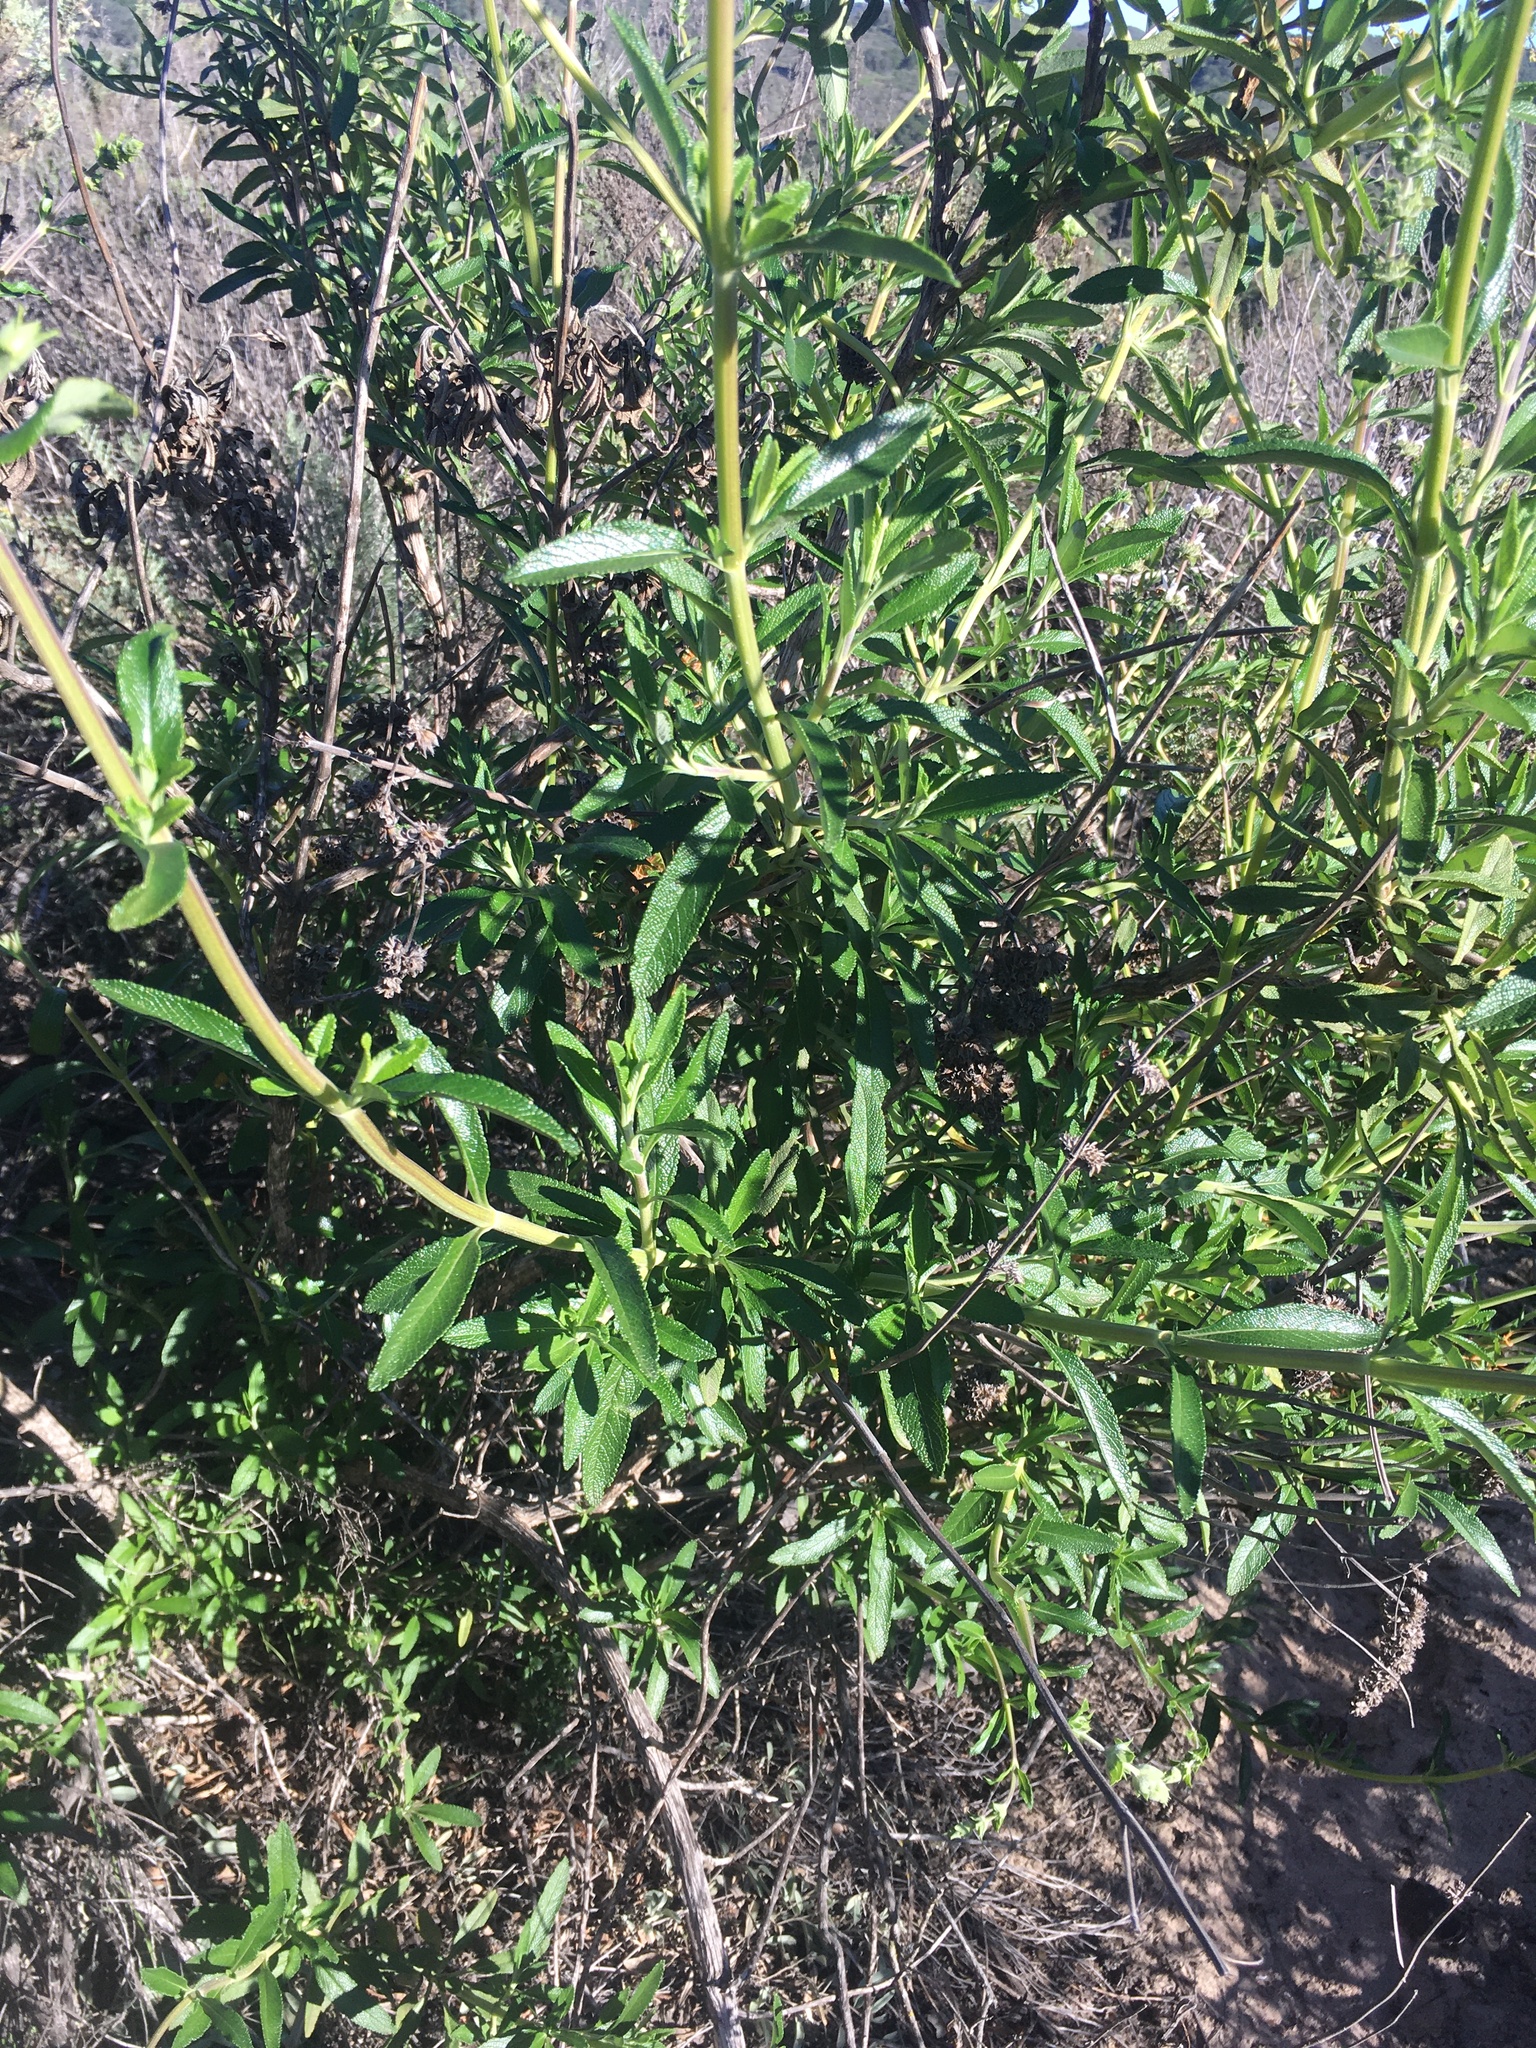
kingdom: Plantae
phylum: Tracheophyta
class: Magnoliopsida
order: Lamiales
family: Lamiaceae
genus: Salvia
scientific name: Salvia mellifera
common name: Black sage
